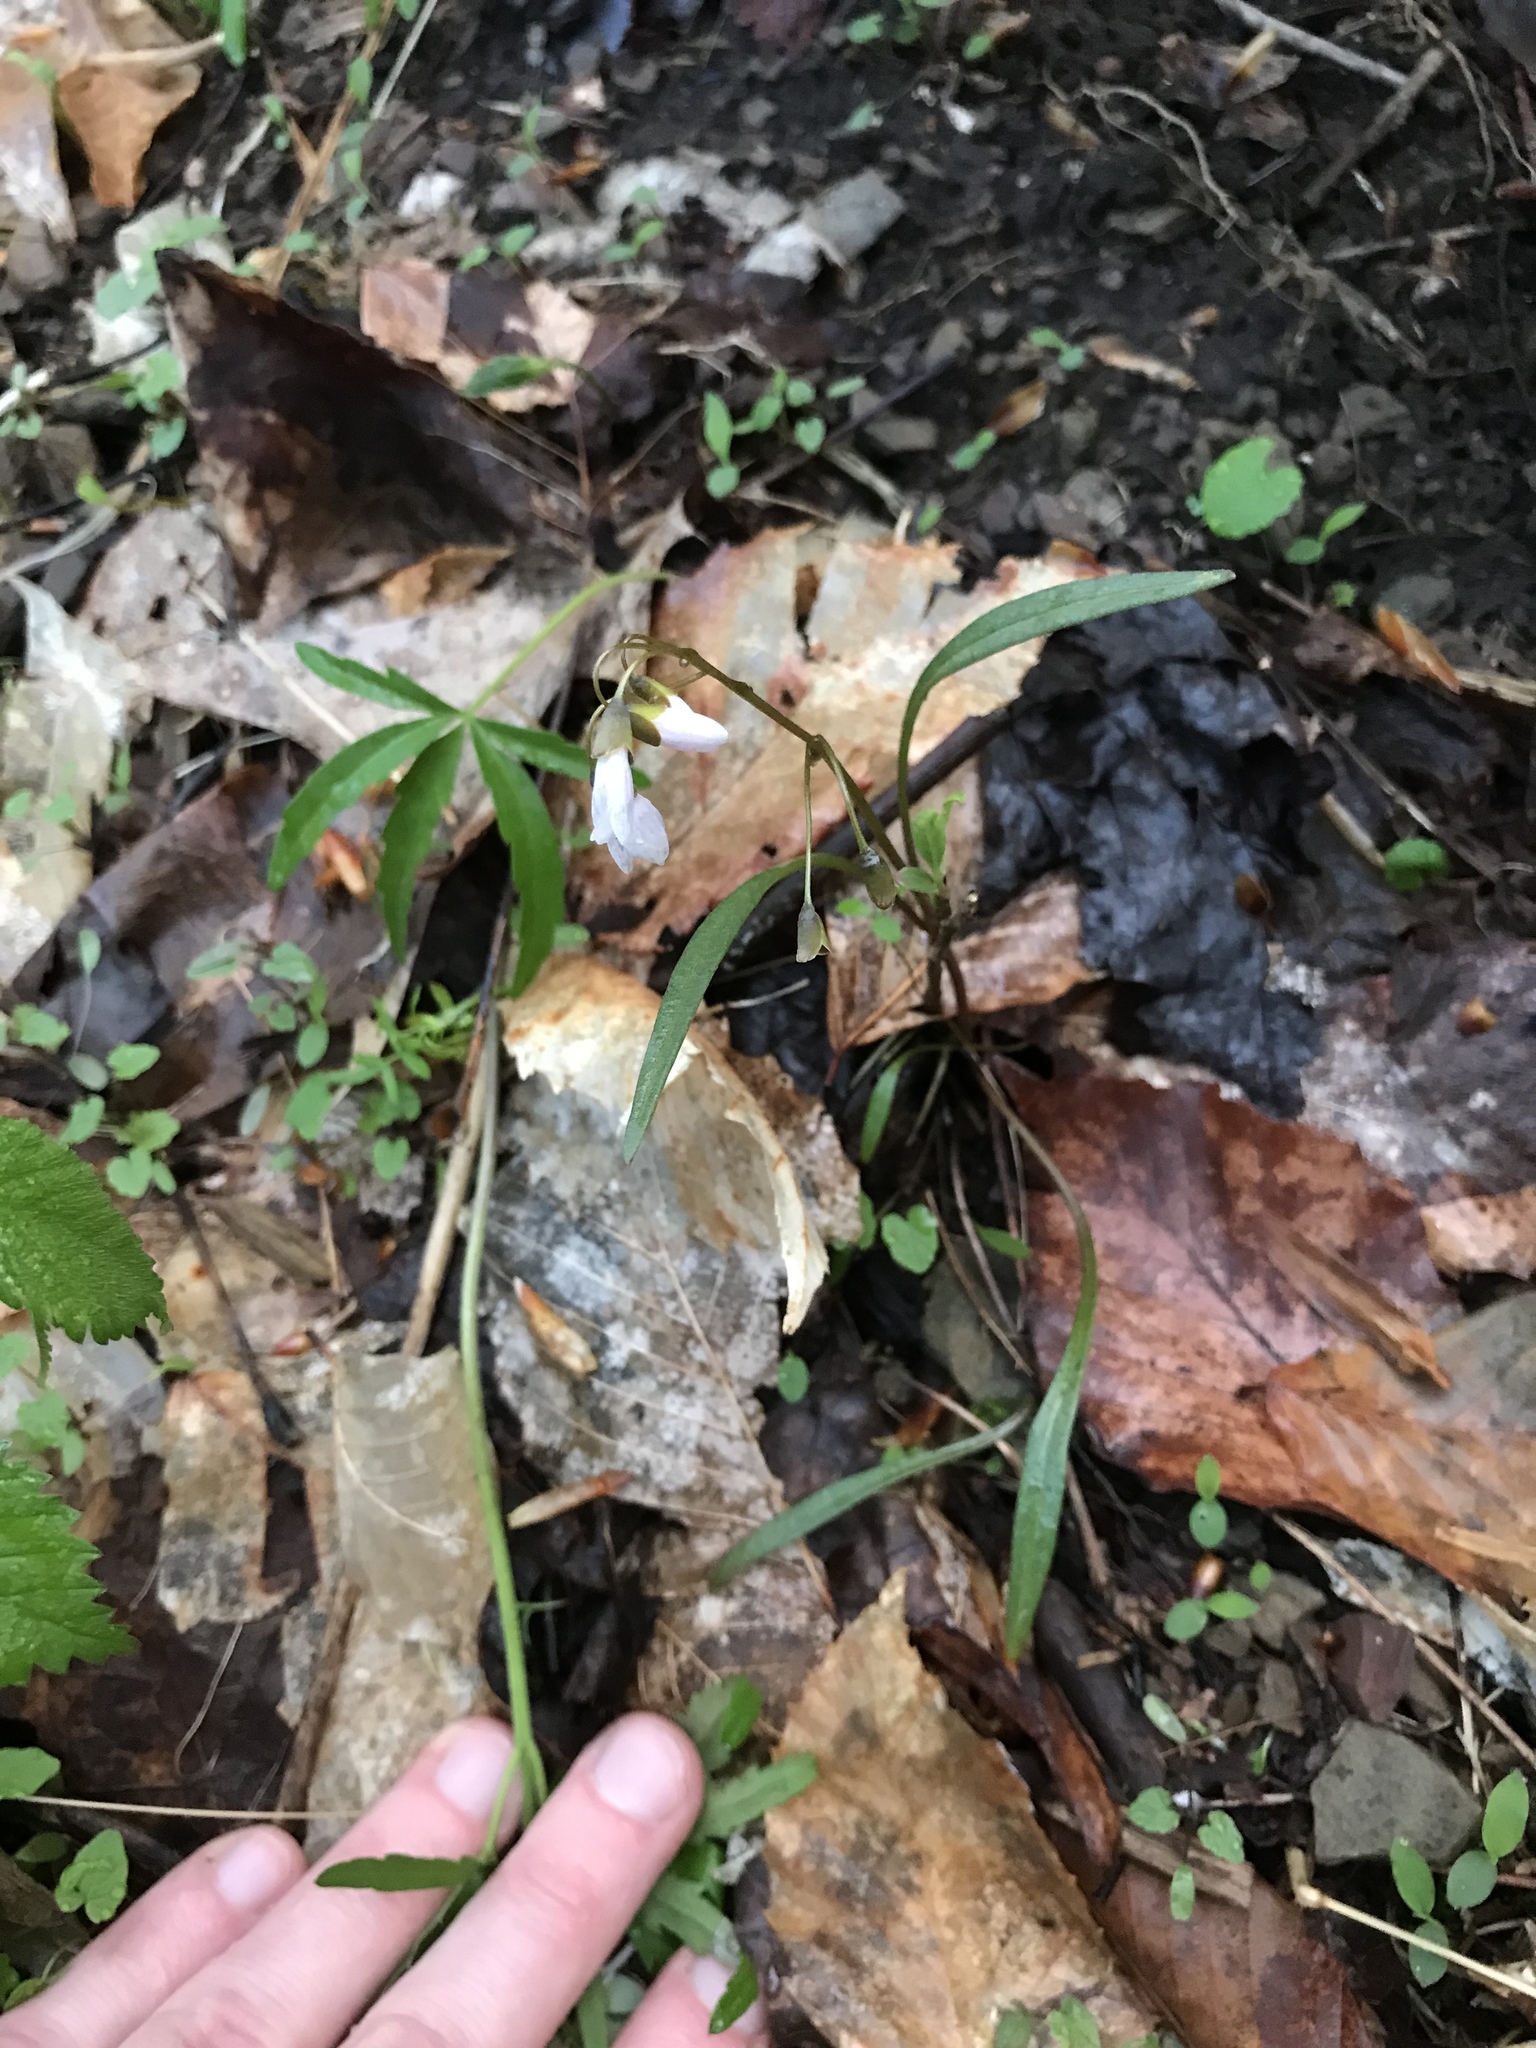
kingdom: Plantae
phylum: Tracheophyta
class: Magnoliopsida
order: Caryophyllales
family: Montiaceae
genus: Claytonia
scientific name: Claytonia virginica
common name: Virginia springbeauty
